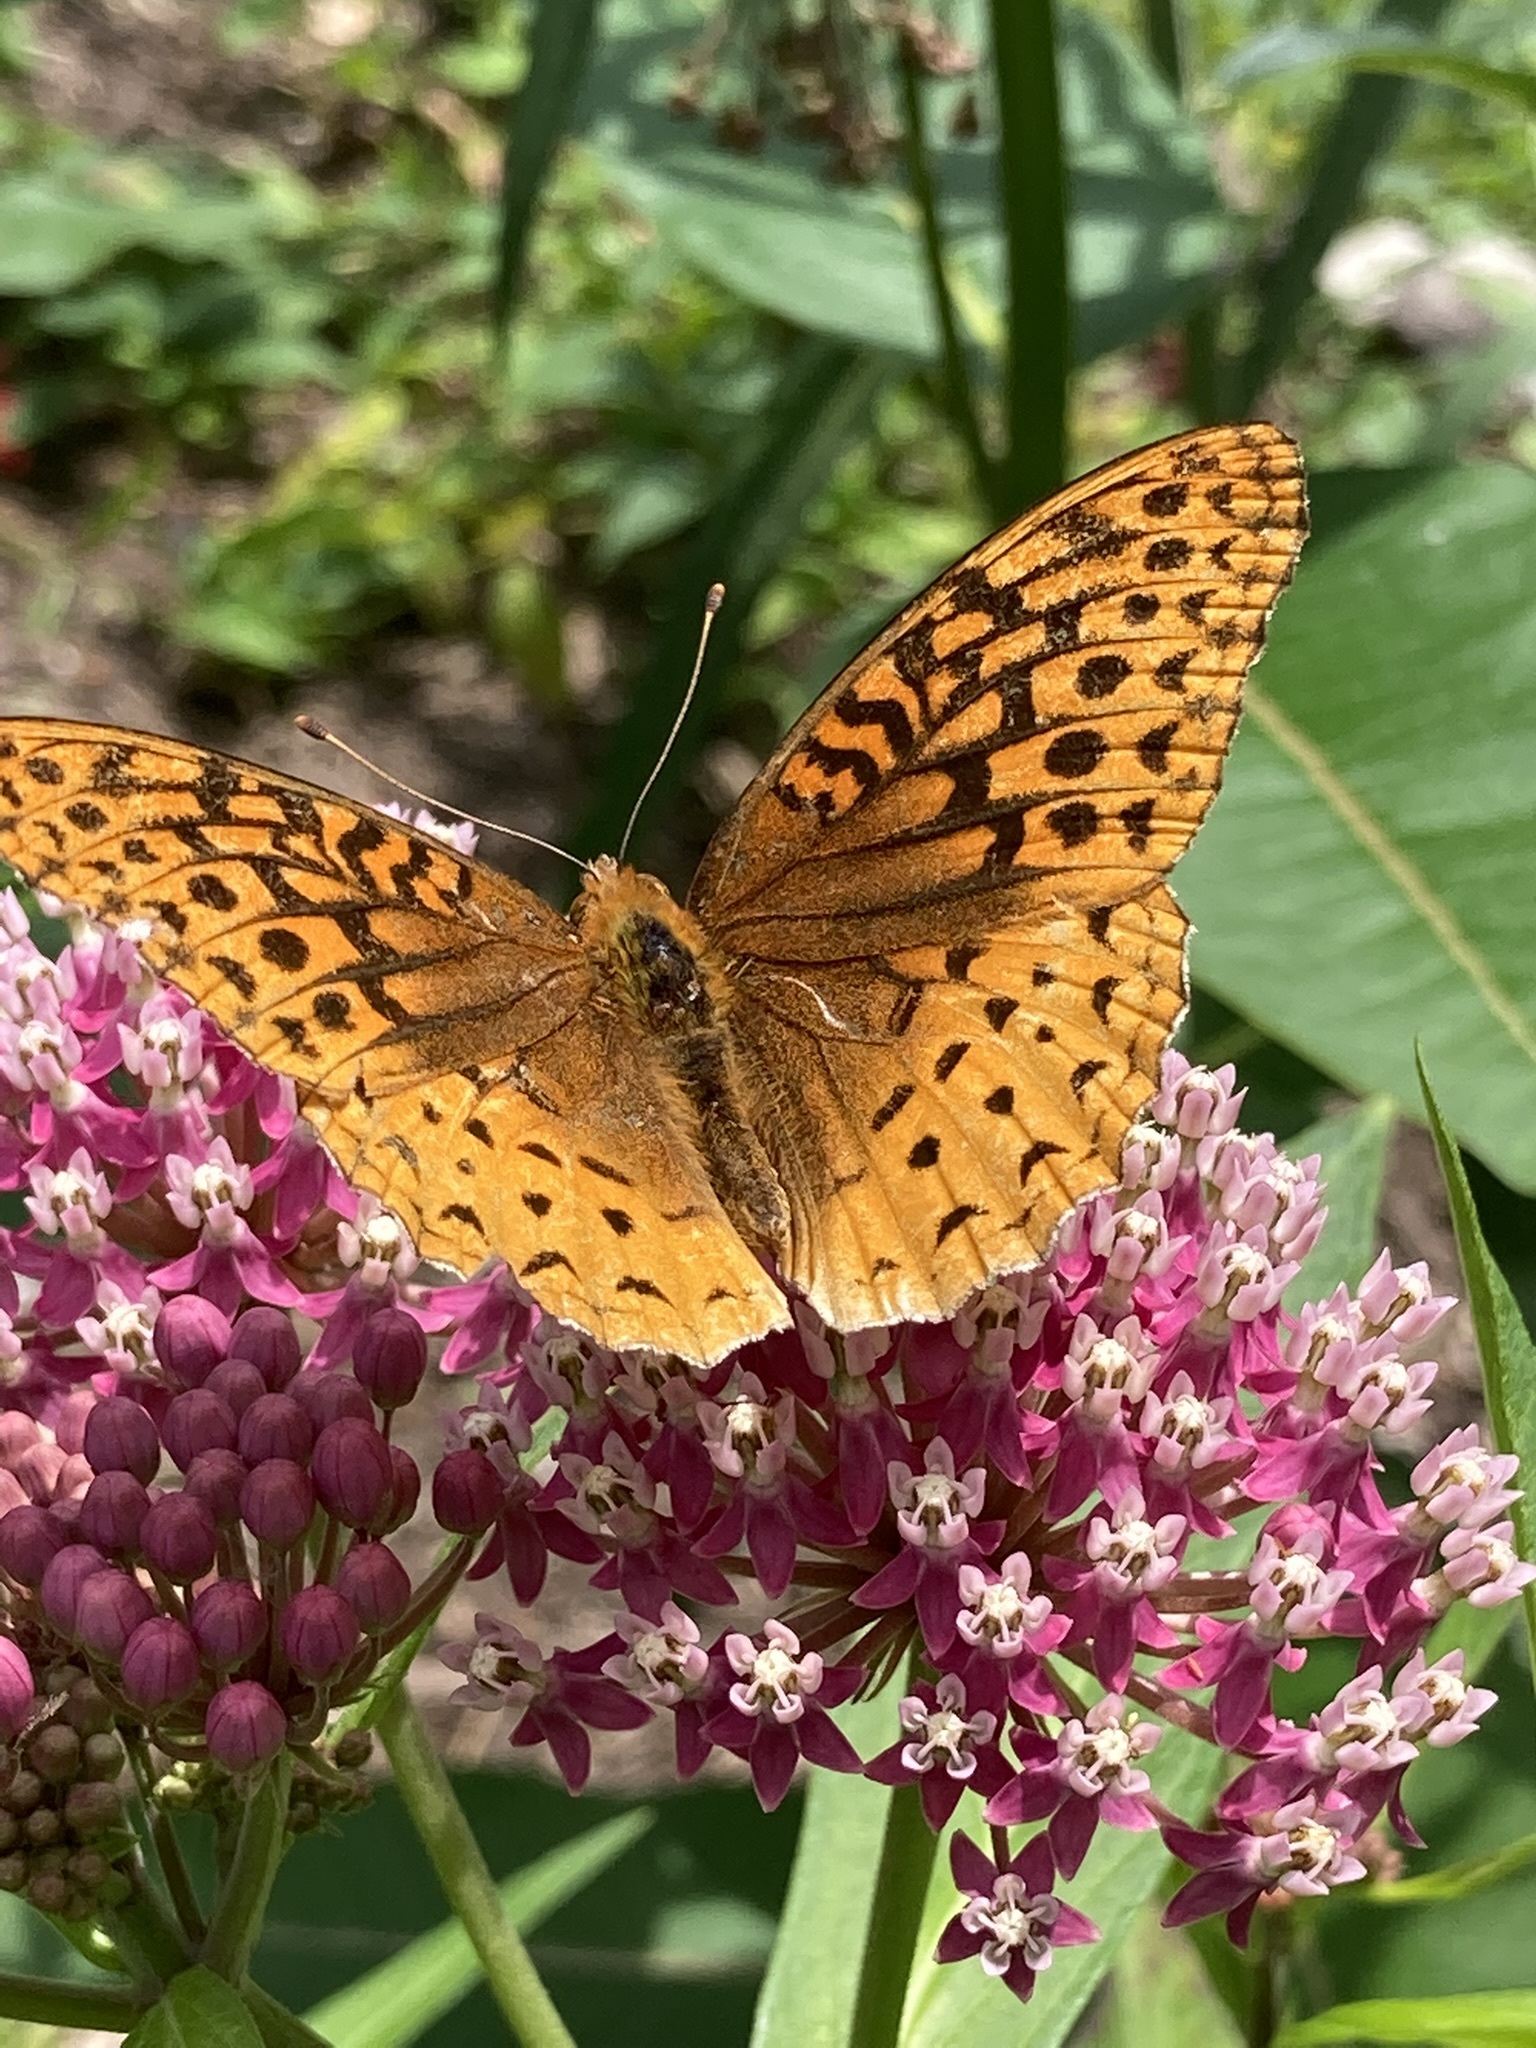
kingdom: Animalia
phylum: Arthropoda
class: Insecta
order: Lepidoptera
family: Nymphalidae
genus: Speyeria
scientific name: Speyeria cybele
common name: Great spangled fritillary
